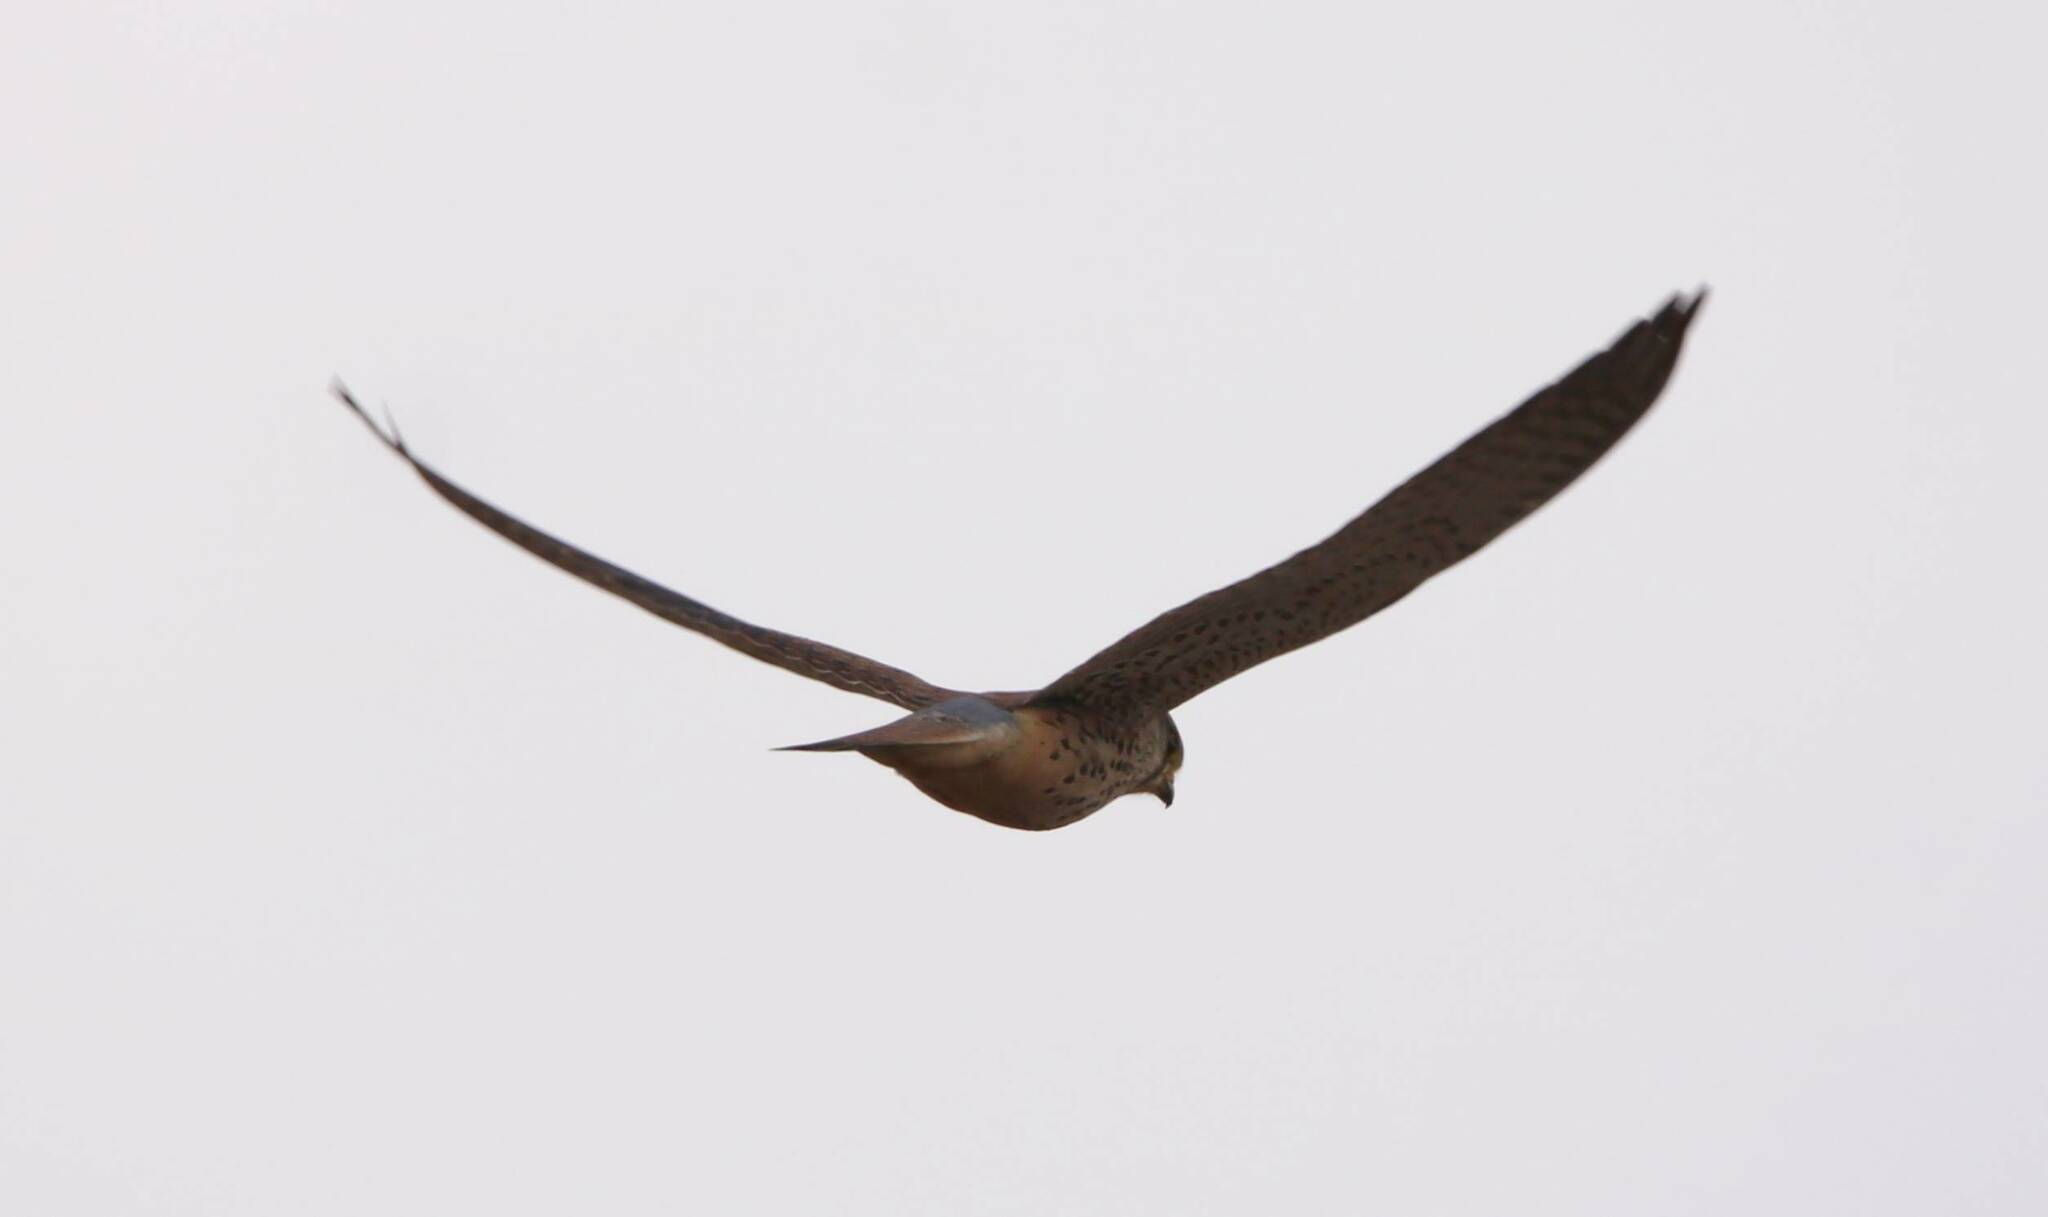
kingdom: Animalia
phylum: Chordata
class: Aves
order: Falconiformes
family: Falconidae
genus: Falco
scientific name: Falco naumanni
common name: Lesser kestrel
